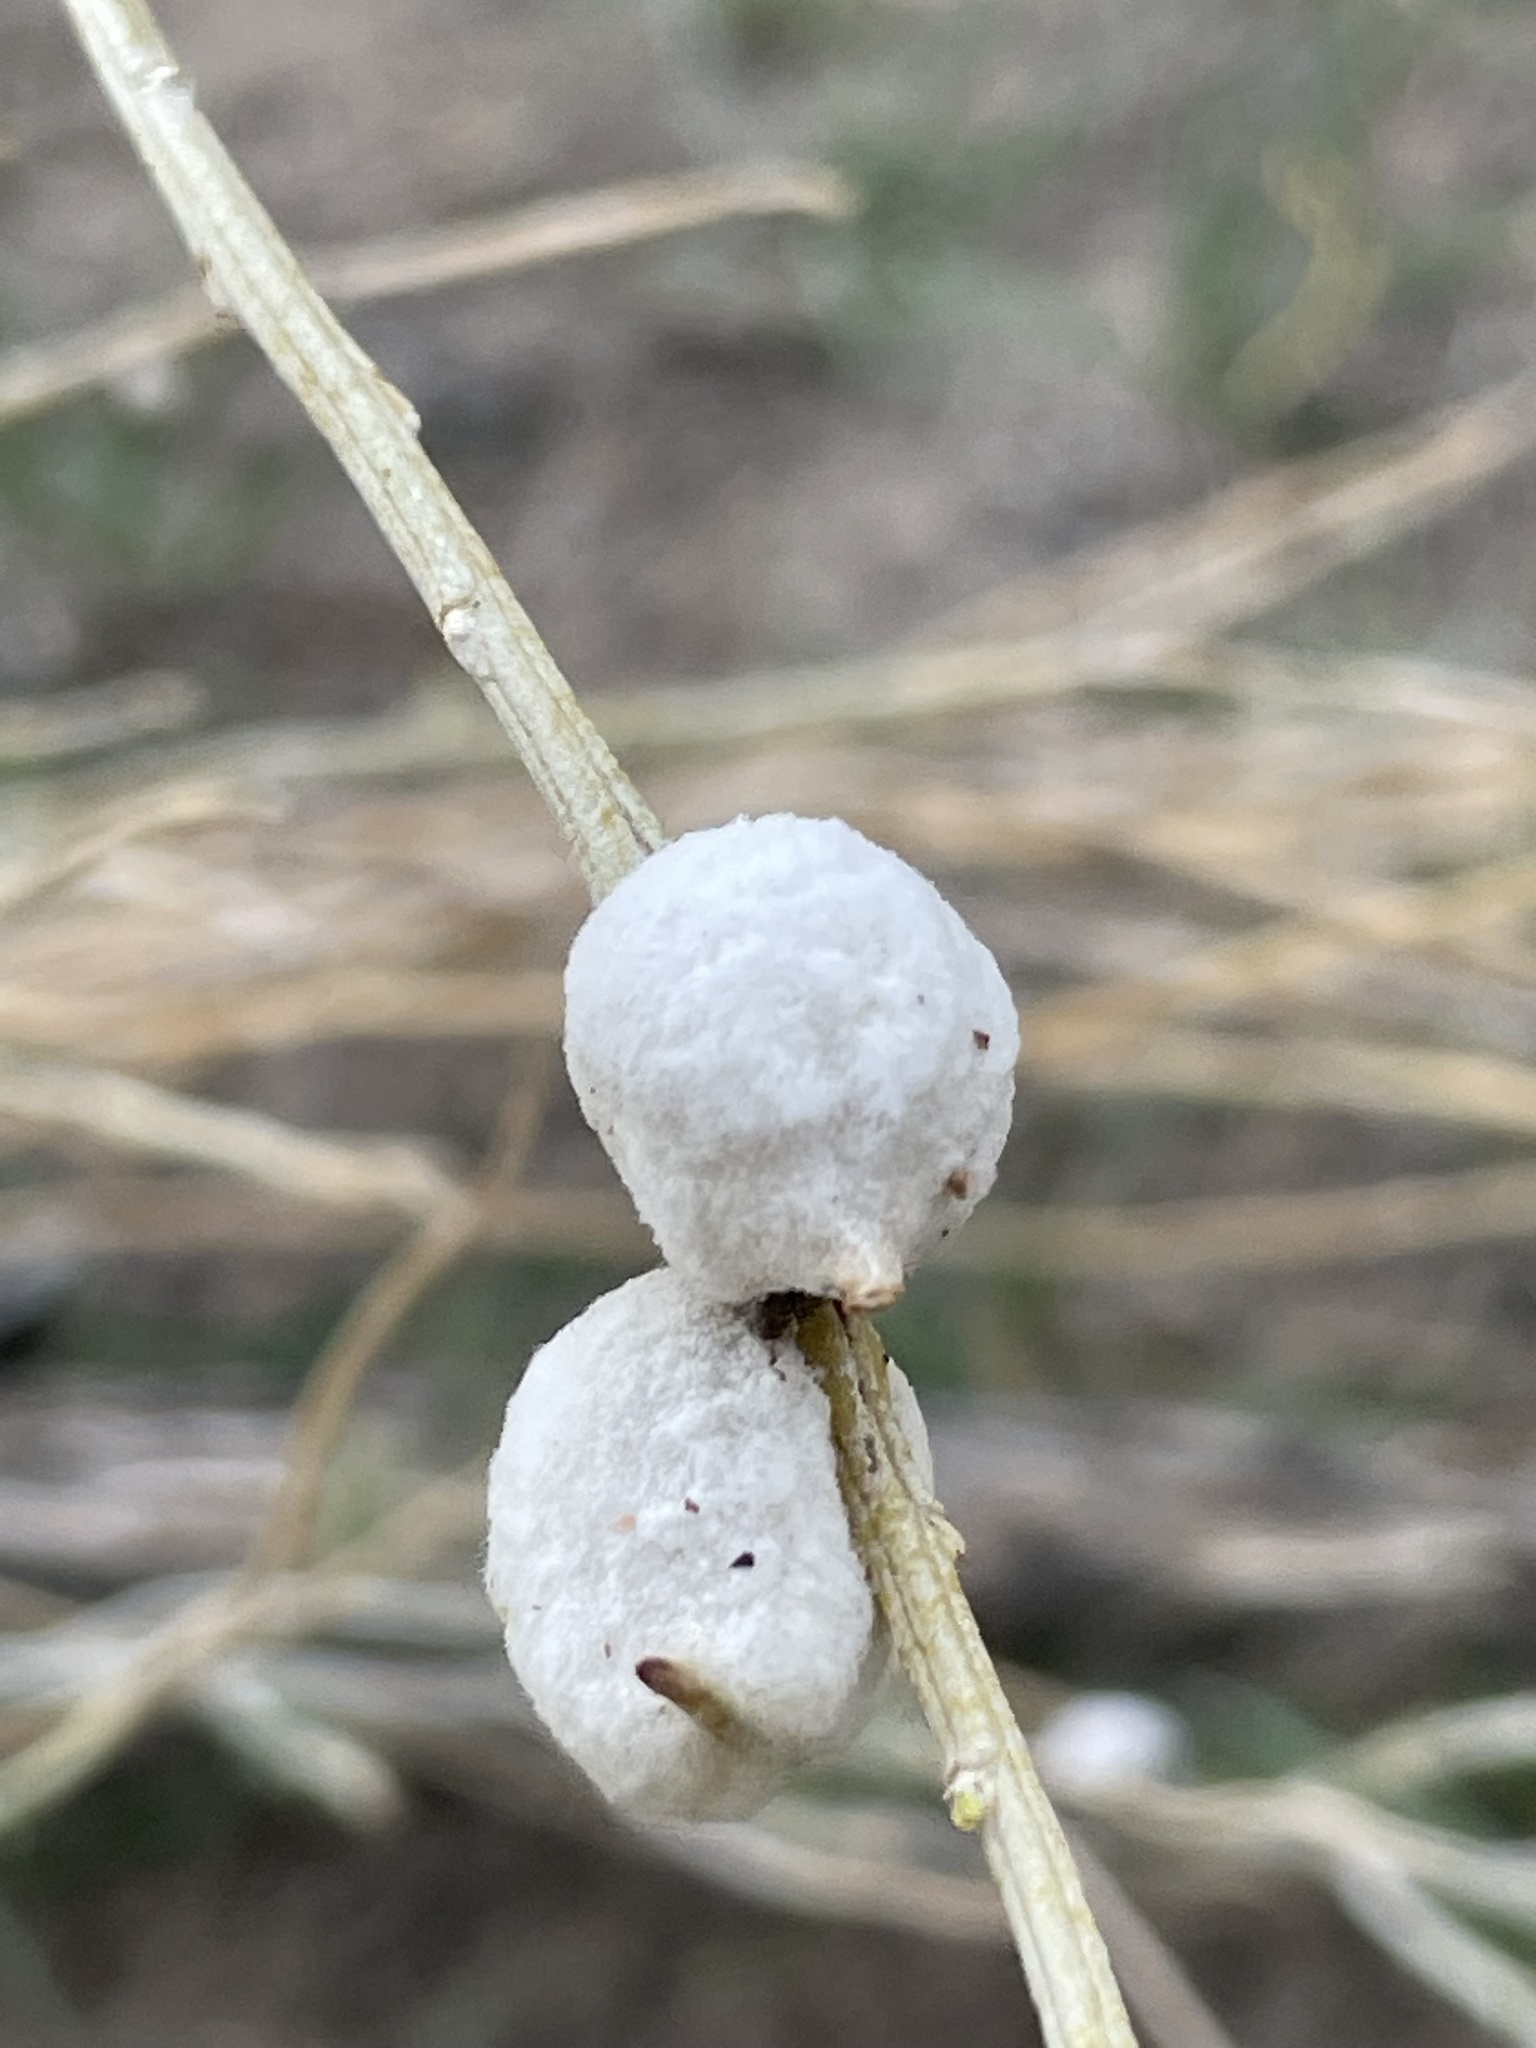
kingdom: Animalia
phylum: Arthropoda
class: Insecta
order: Diptera
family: Tephritidae
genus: Aciurina
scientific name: Aciurina bigeloviae
